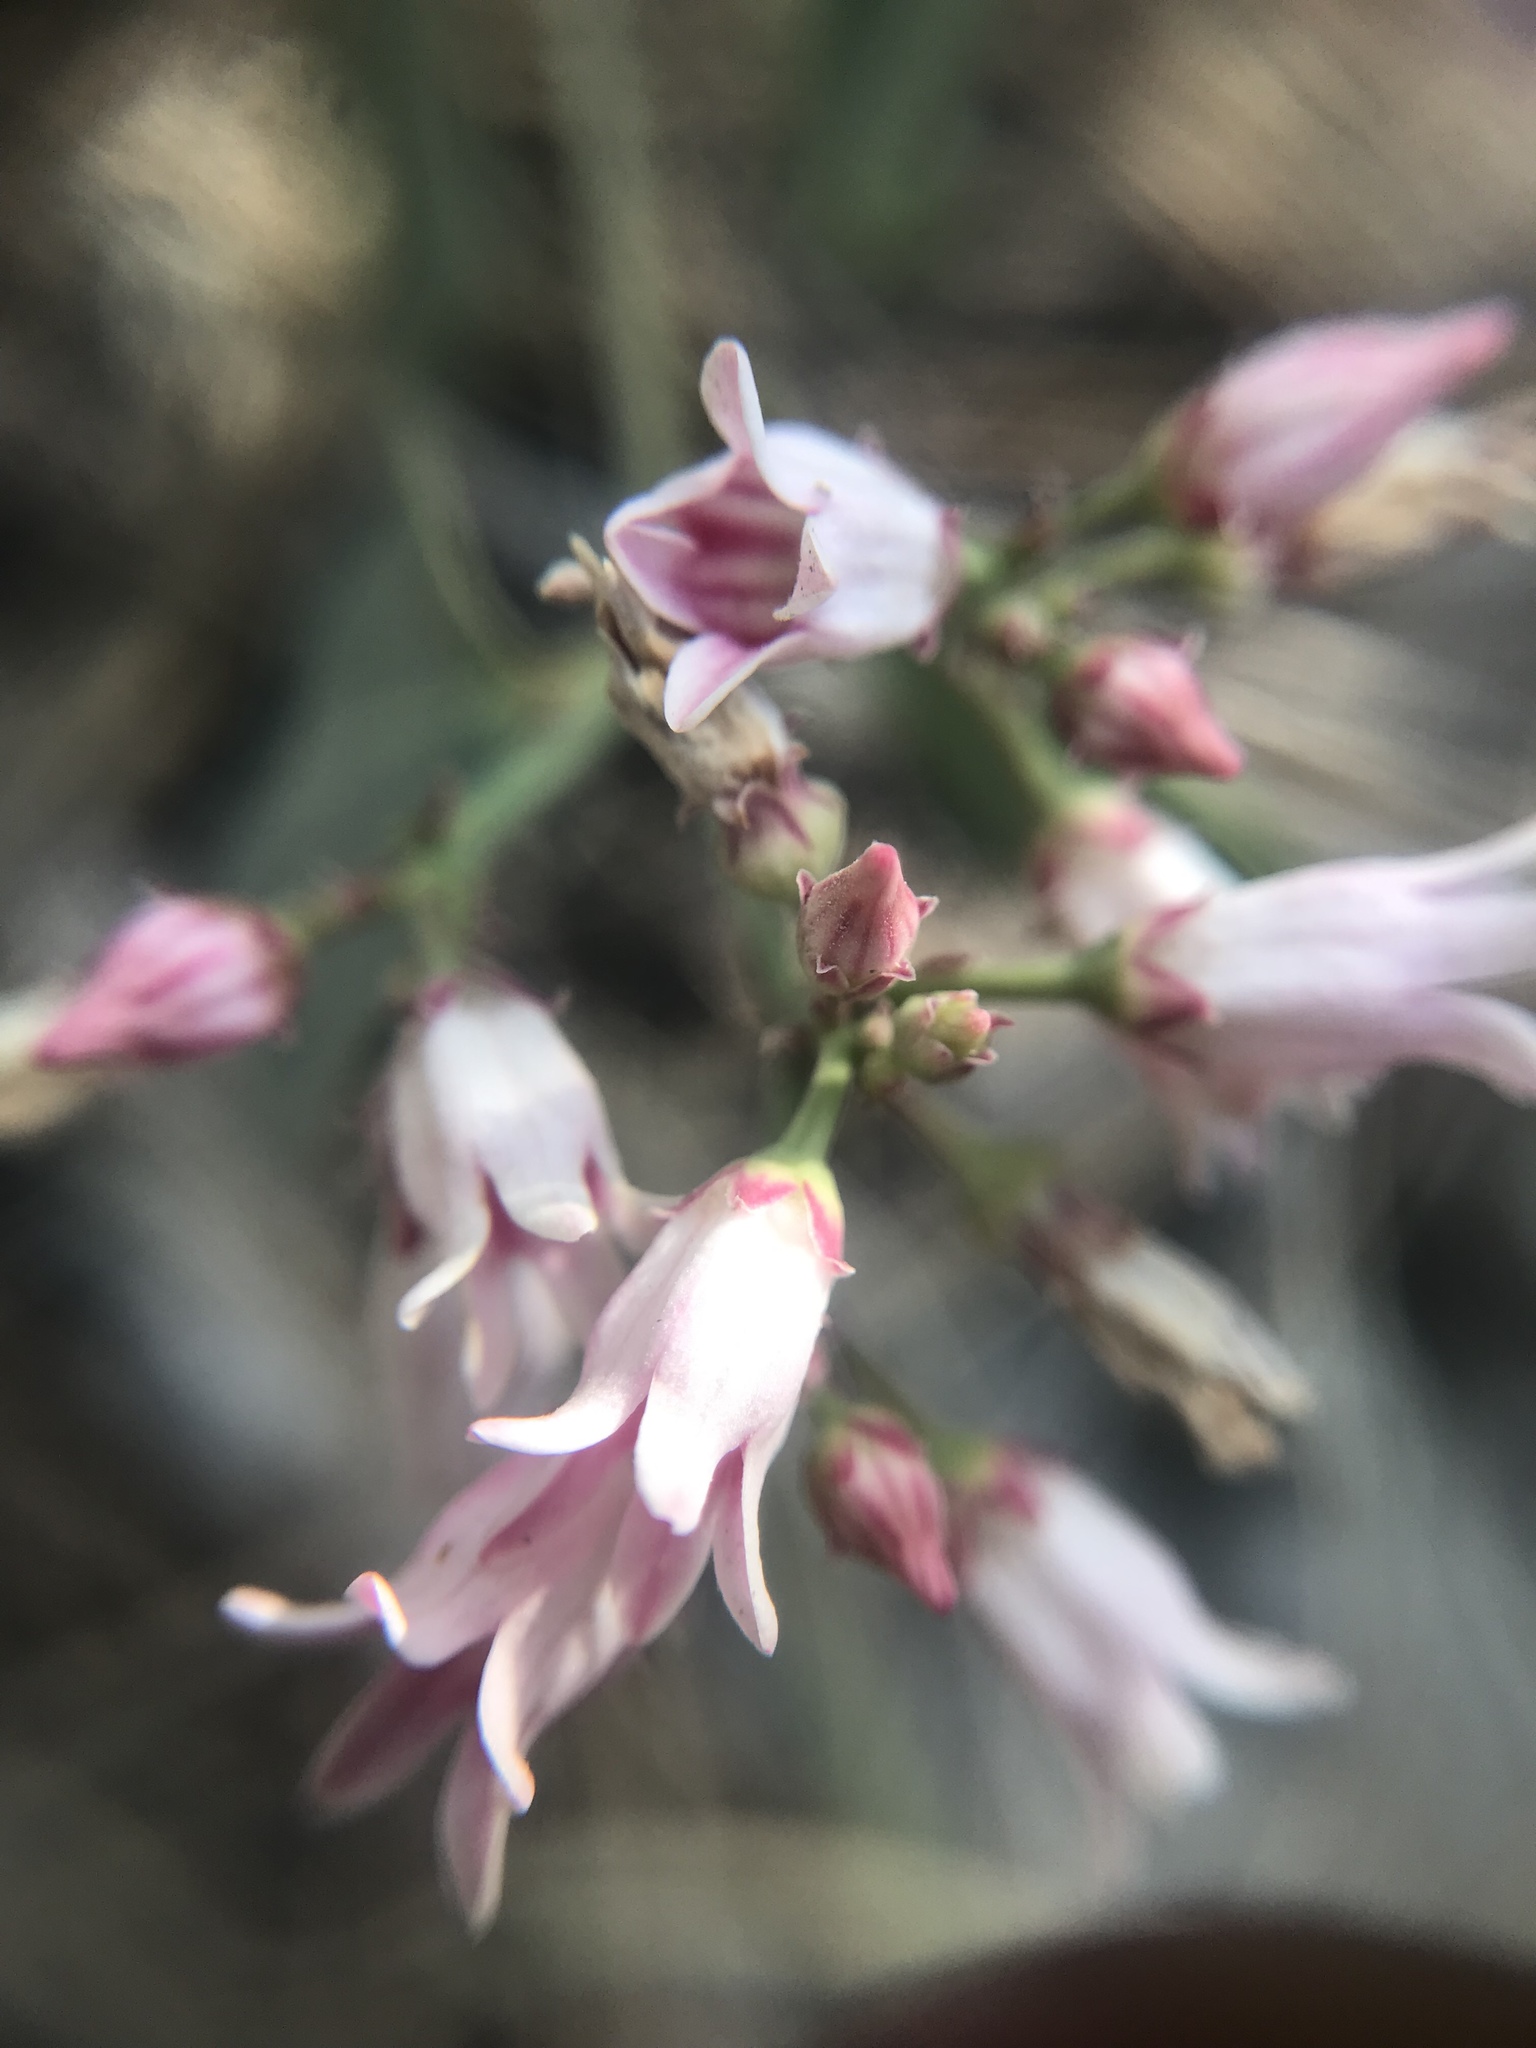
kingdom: Plantae
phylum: Tracheophyta
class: Magnoliopsida
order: Gentianales
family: Apocynaceae
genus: Apocynum
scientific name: Apocynum androsaemifolium
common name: Spreading dogbane
